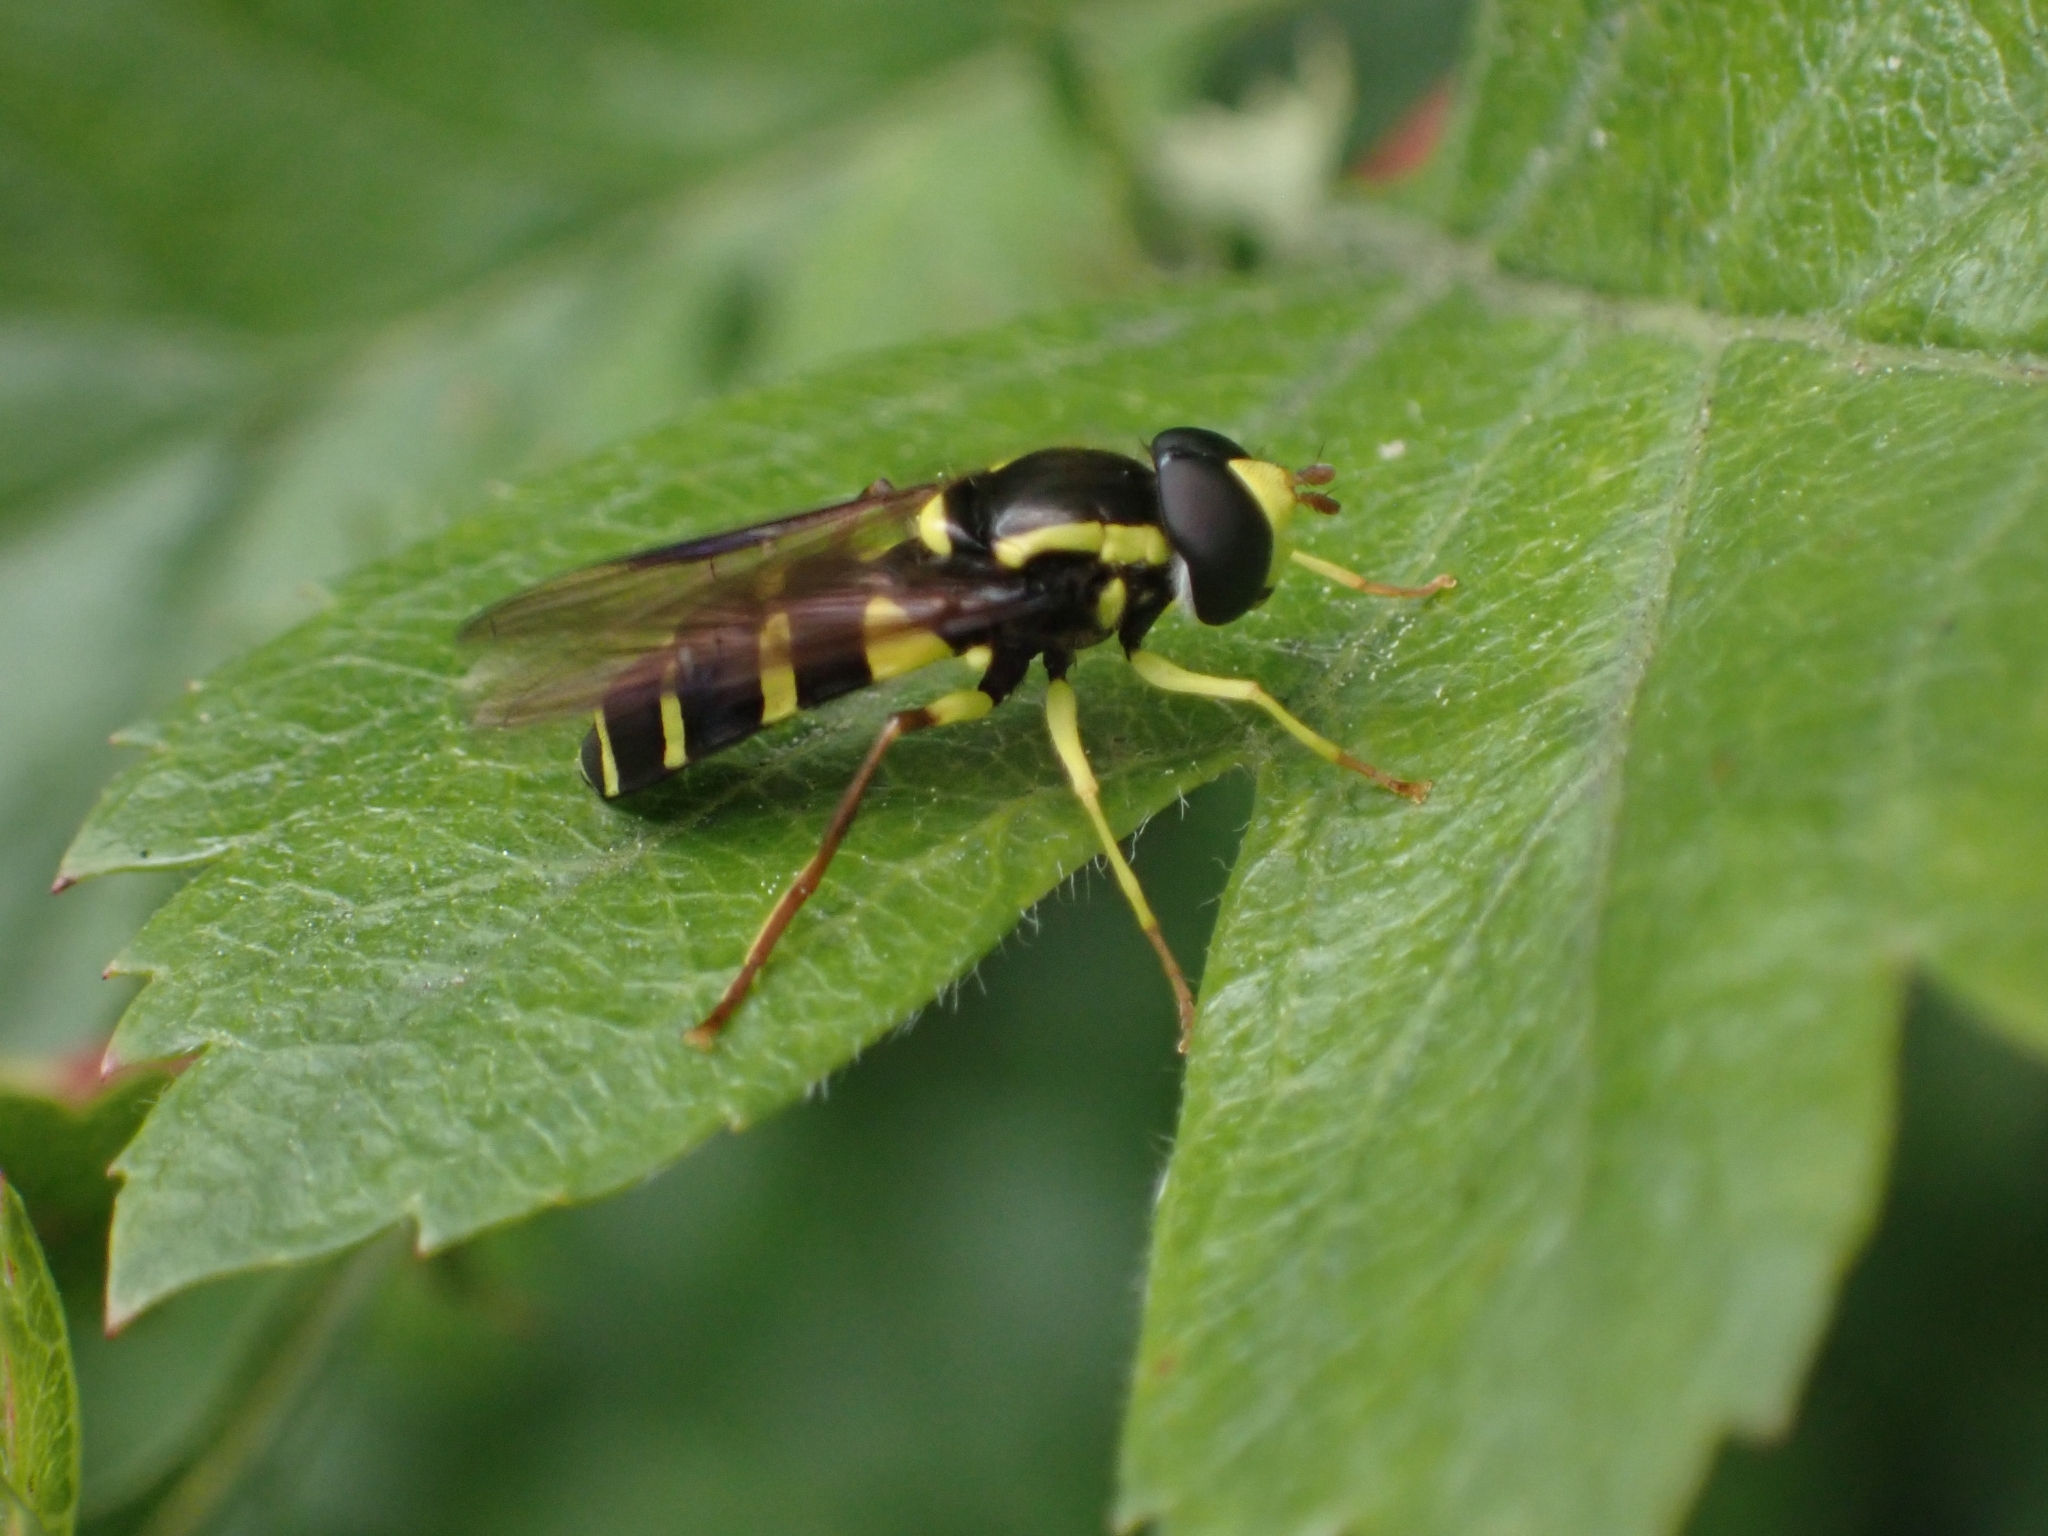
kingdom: Animalia
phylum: Arthropoda
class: Insecta
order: Diptera
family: Syrphidae
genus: Philhelius
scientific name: Philhelius pedissequum
